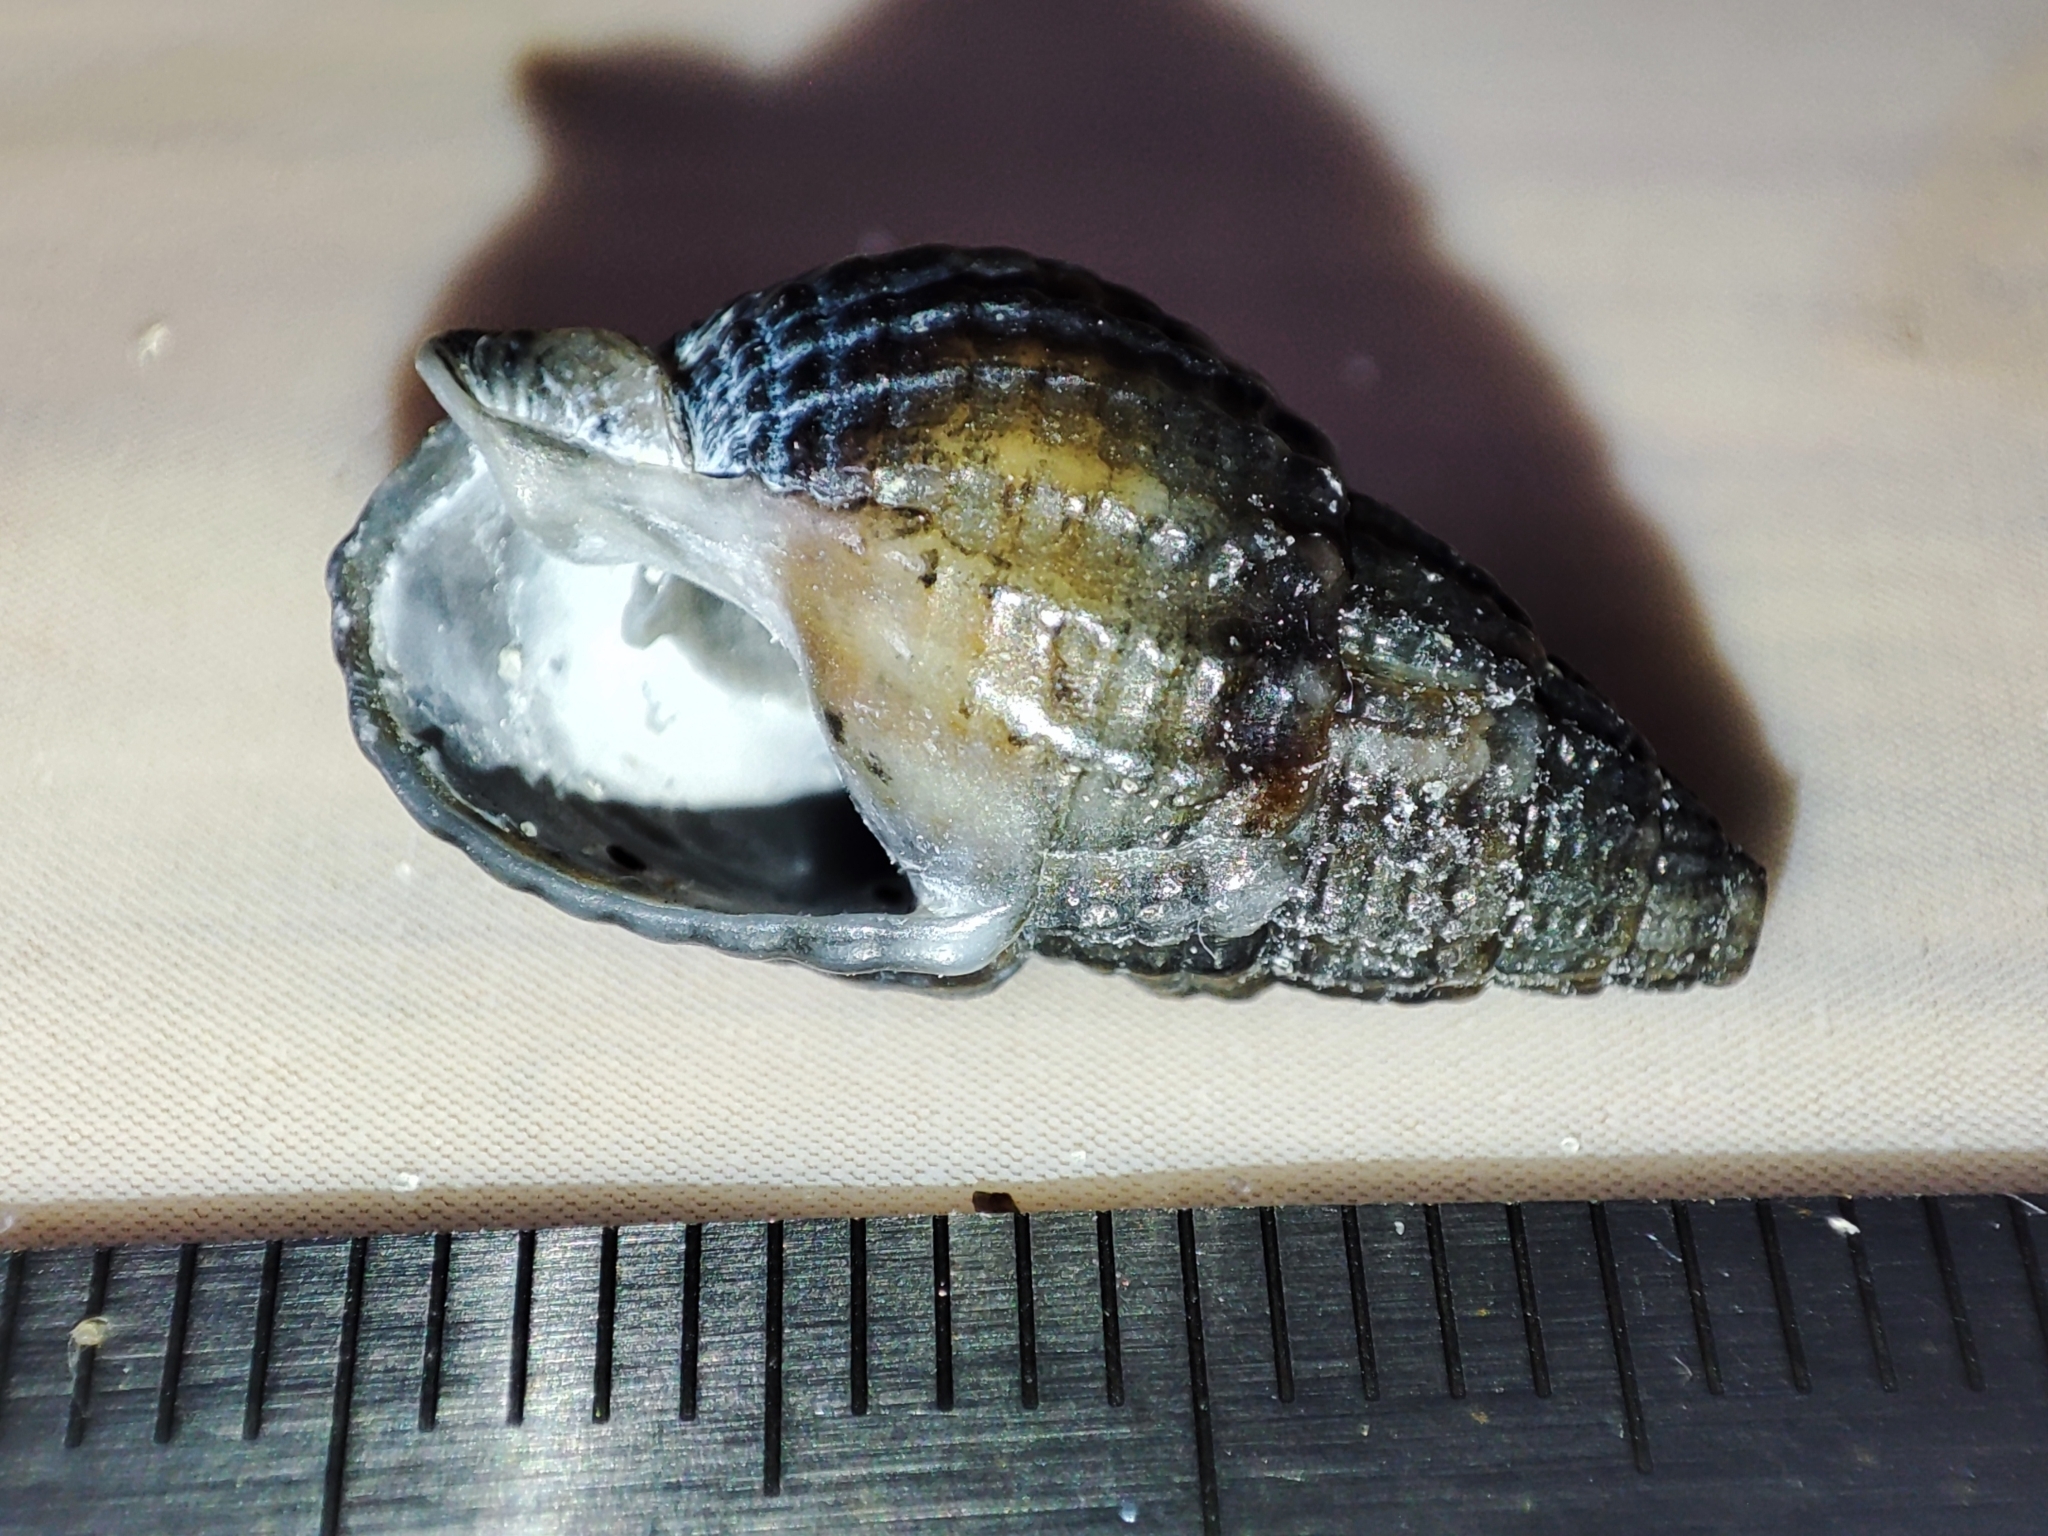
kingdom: Animalia
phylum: Mollusca
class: Gastropoda
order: Neogastropoda
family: Nassariidae
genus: Tritia
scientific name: Tritia nitida
